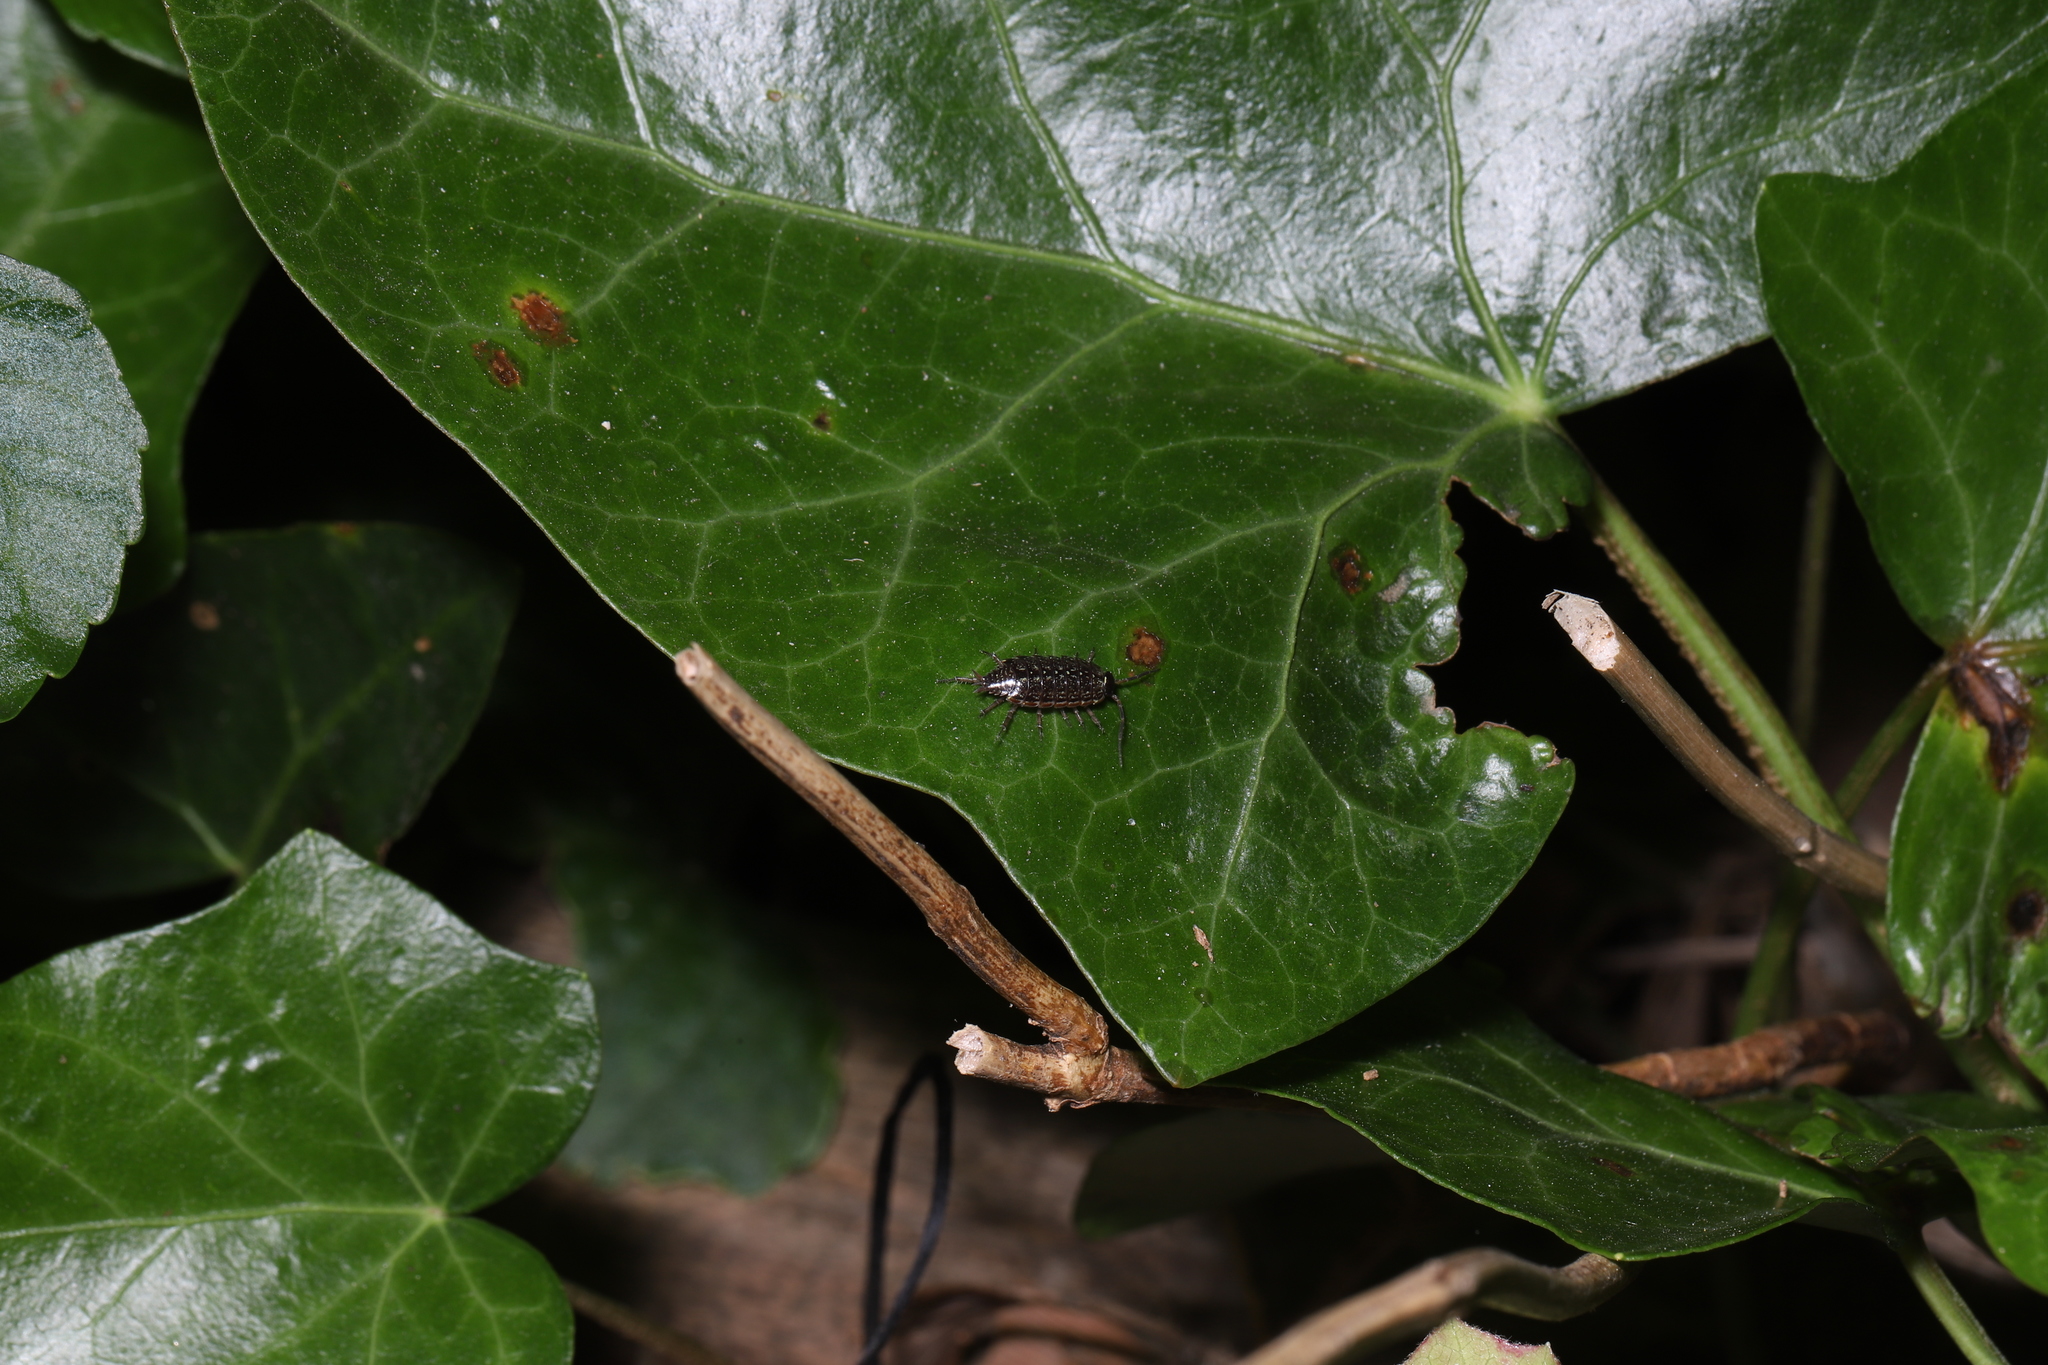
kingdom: Animalia
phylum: Arthropoda
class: Malacostraca
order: Isopoda
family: Philosciidae
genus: Philoscia
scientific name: Philoscia muscorum
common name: Common striped woodlouse
